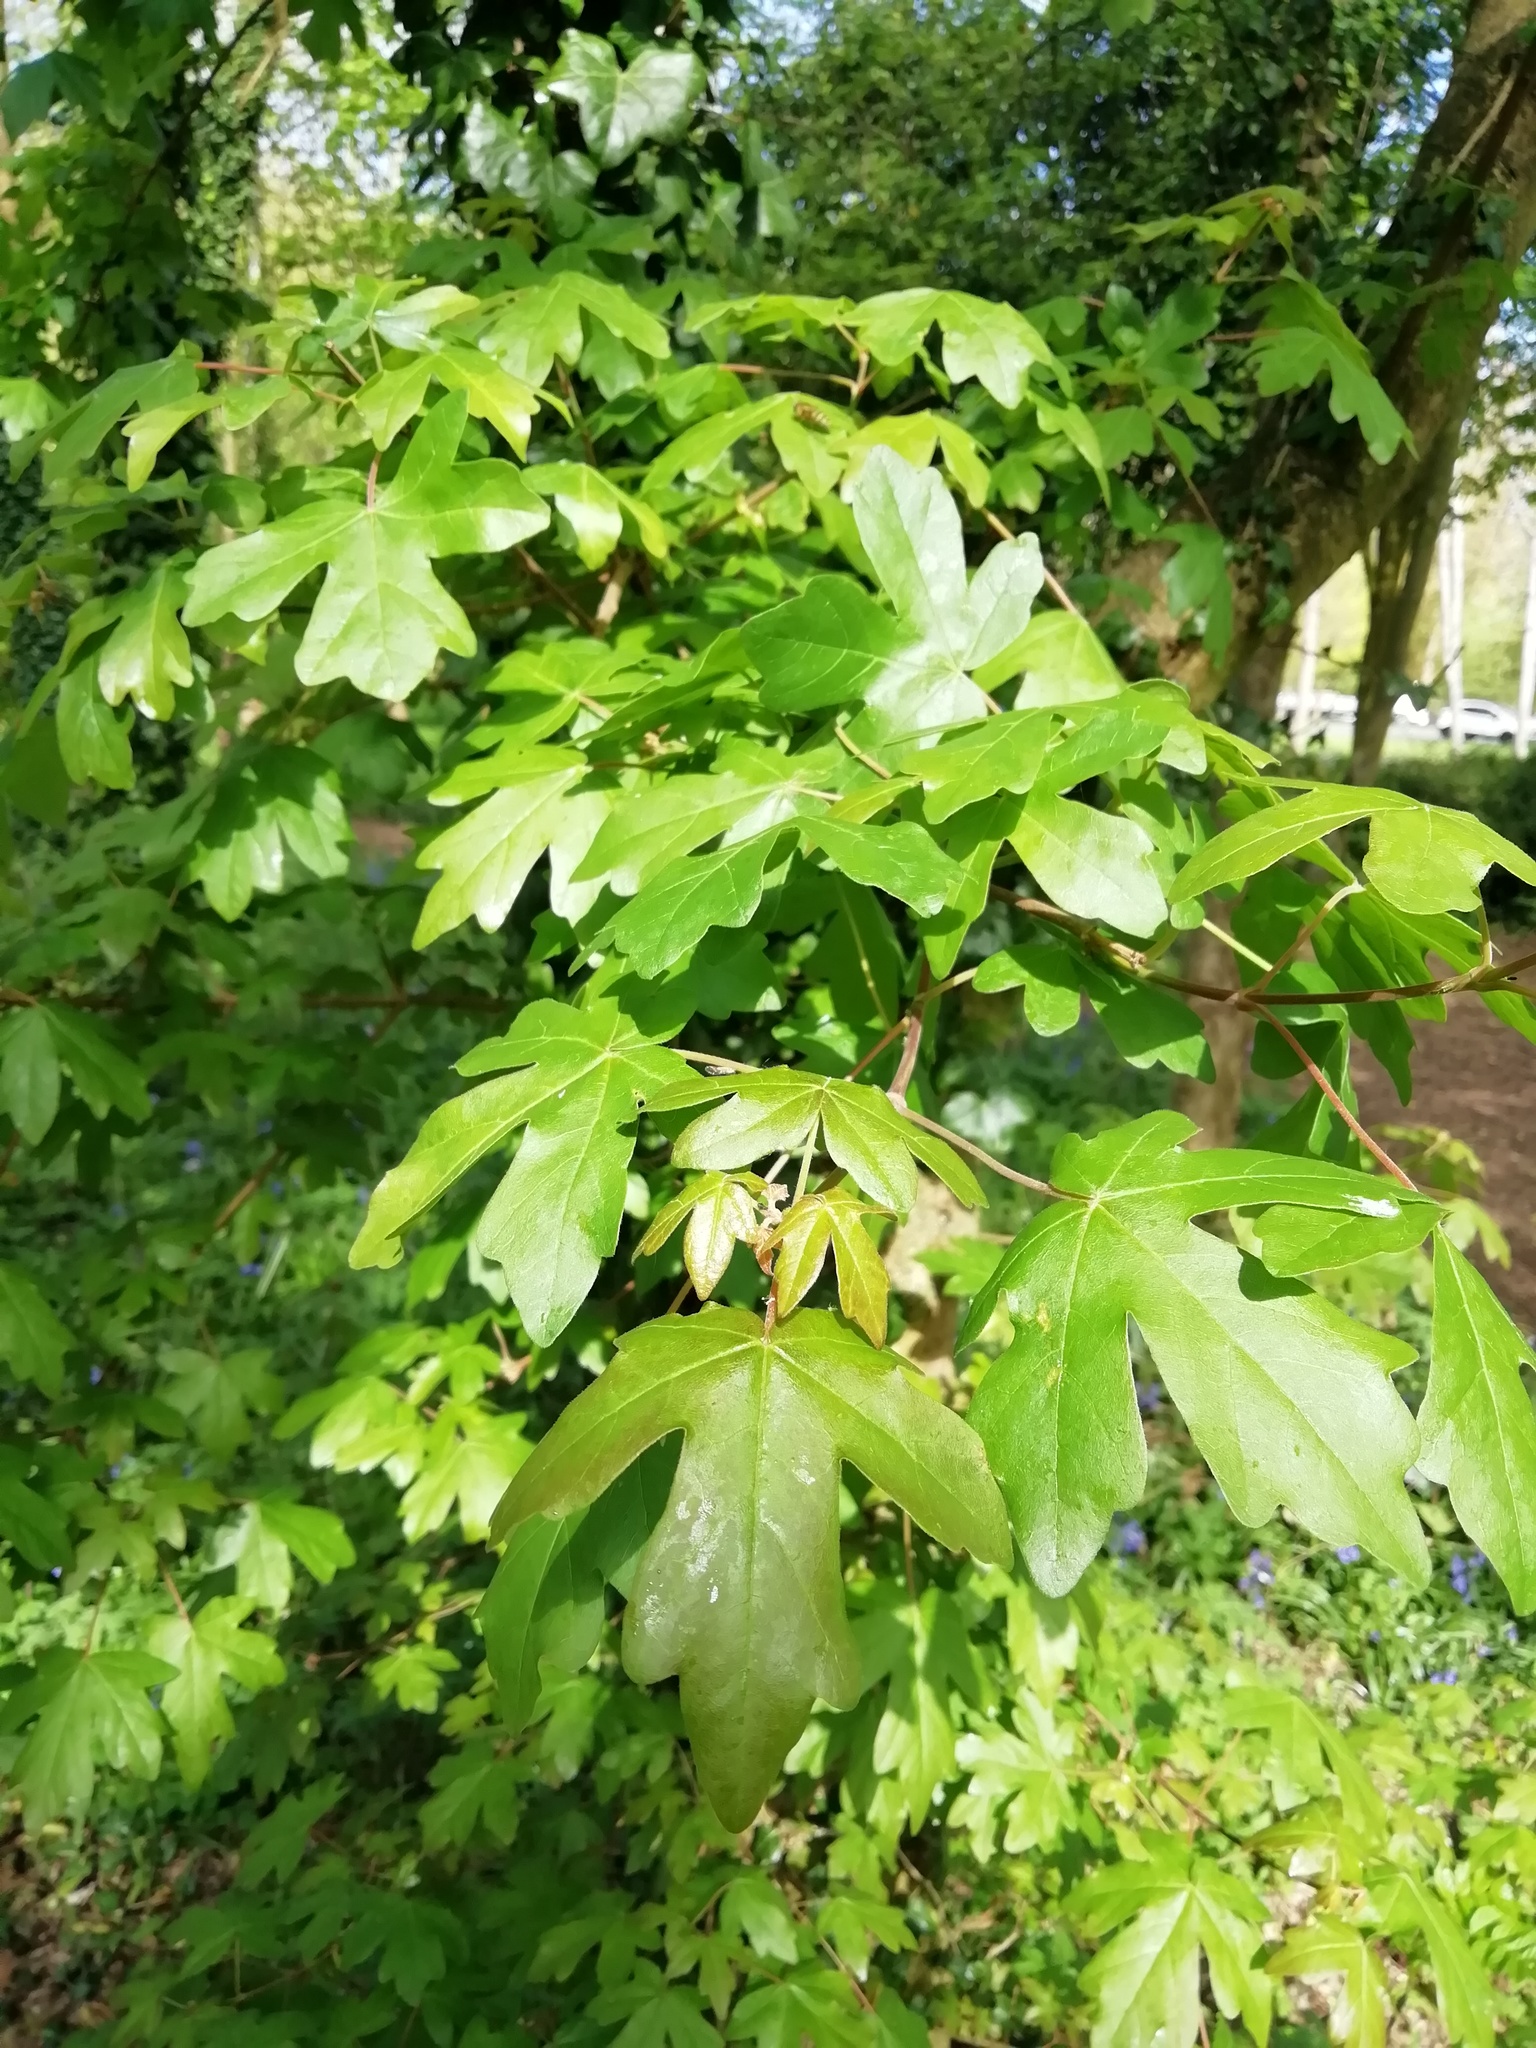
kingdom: Plantae
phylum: Tracheophyta
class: Magnoliopsida
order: Sapindales
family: Sapindaceae
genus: Acer
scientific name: Acer campestre
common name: Field maple
